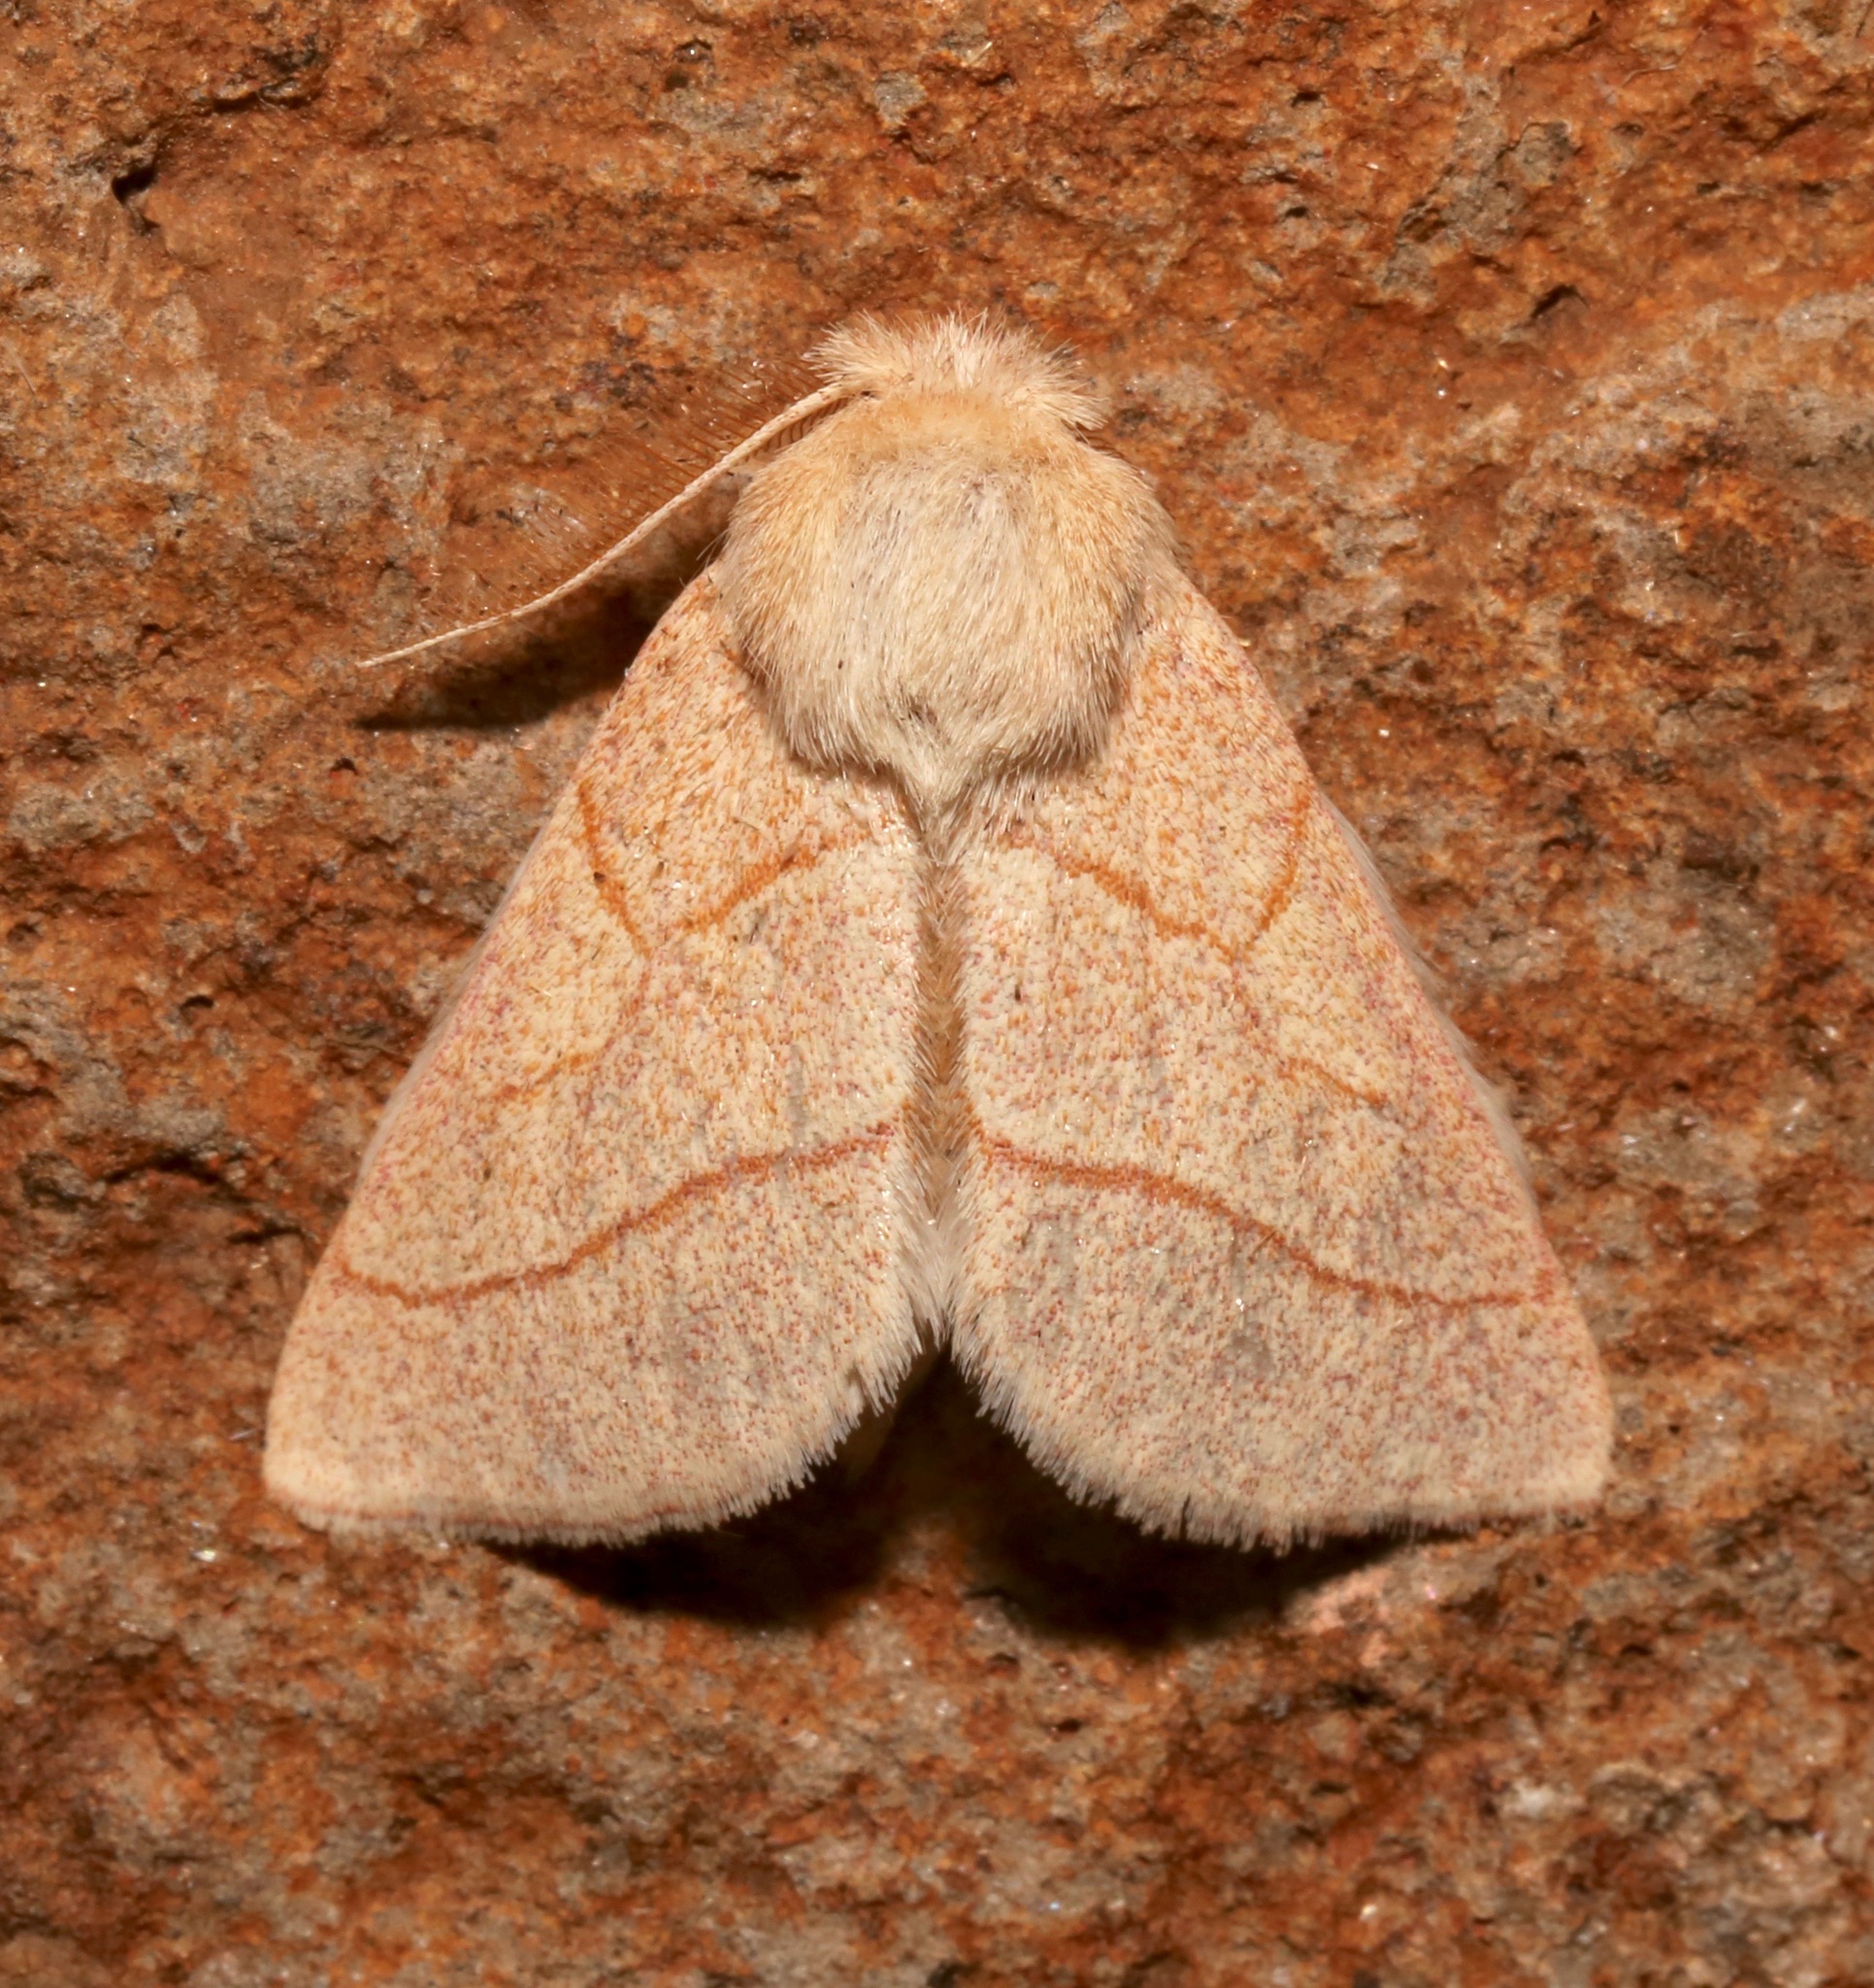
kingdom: Animalia
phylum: Arthropoda
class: Insecta
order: Lepidoptera
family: Notodontidae
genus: Hyparpax
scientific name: Hyparpax aurostriata
